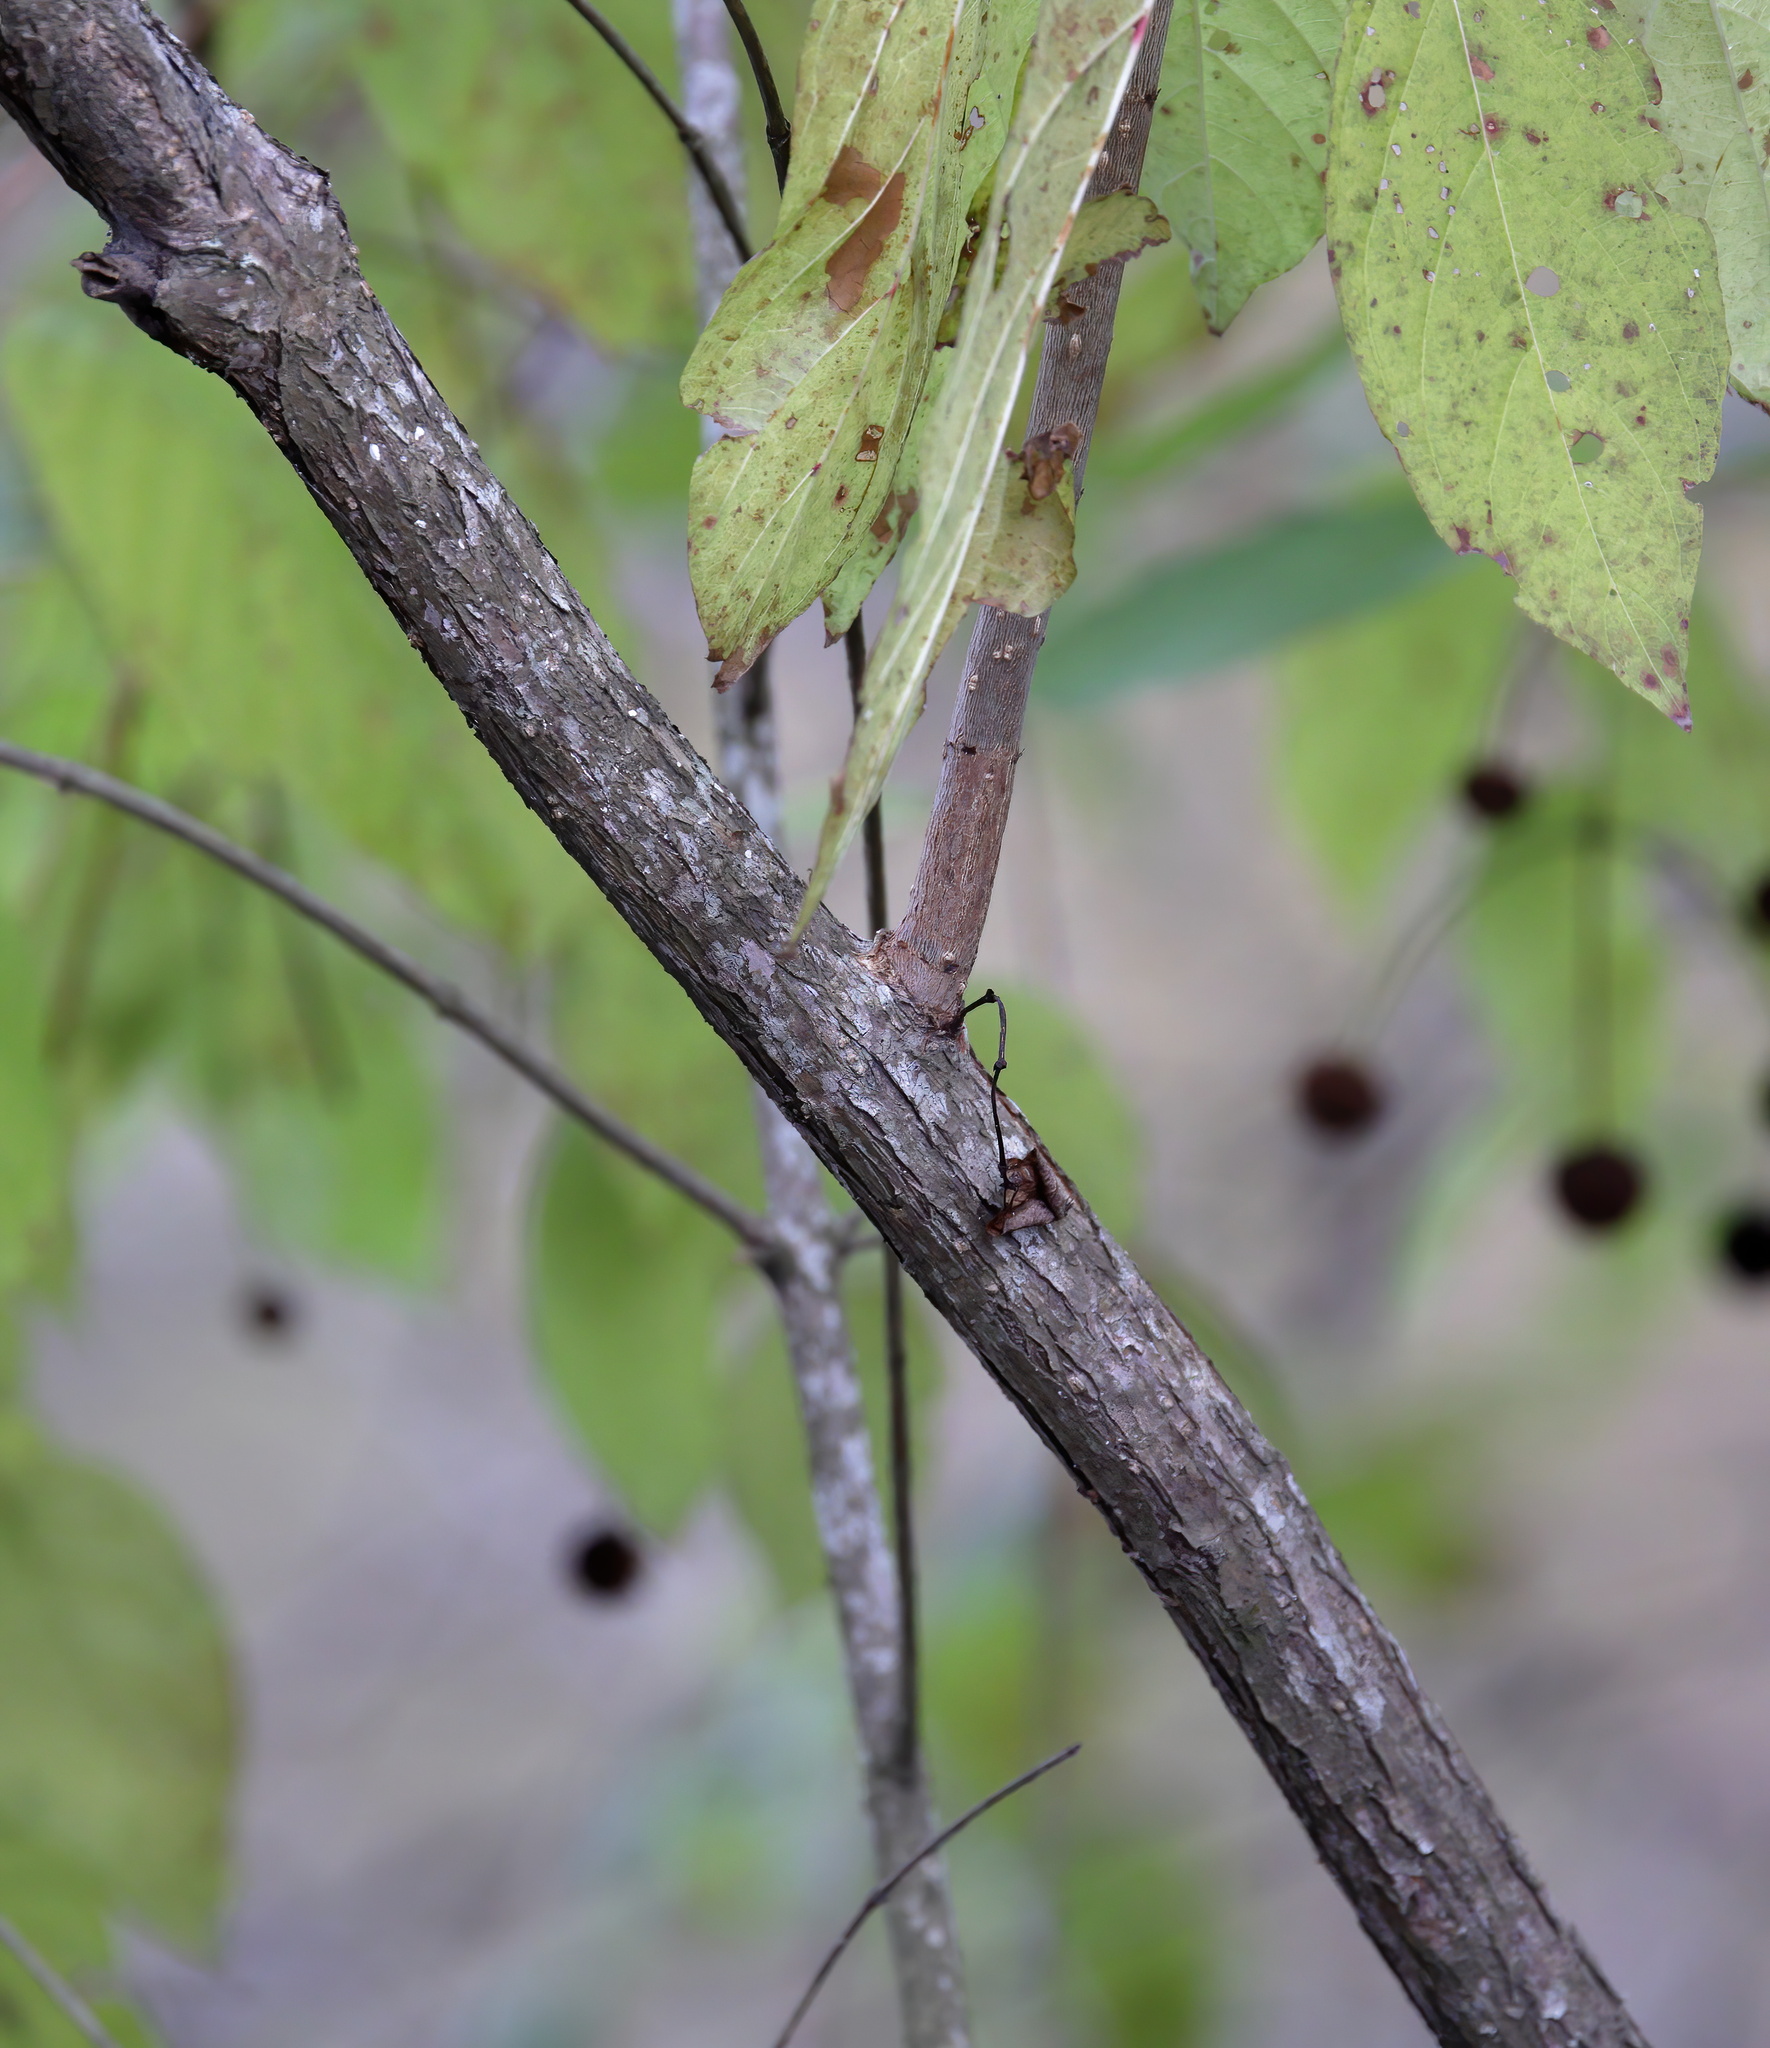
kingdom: Plantae
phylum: Tracheophyta
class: Magnoliopsida
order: Gentianales
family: Rubiaceae
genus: Cephalanthus
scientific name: Cephalanthus occidentalis
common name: Button-willow
